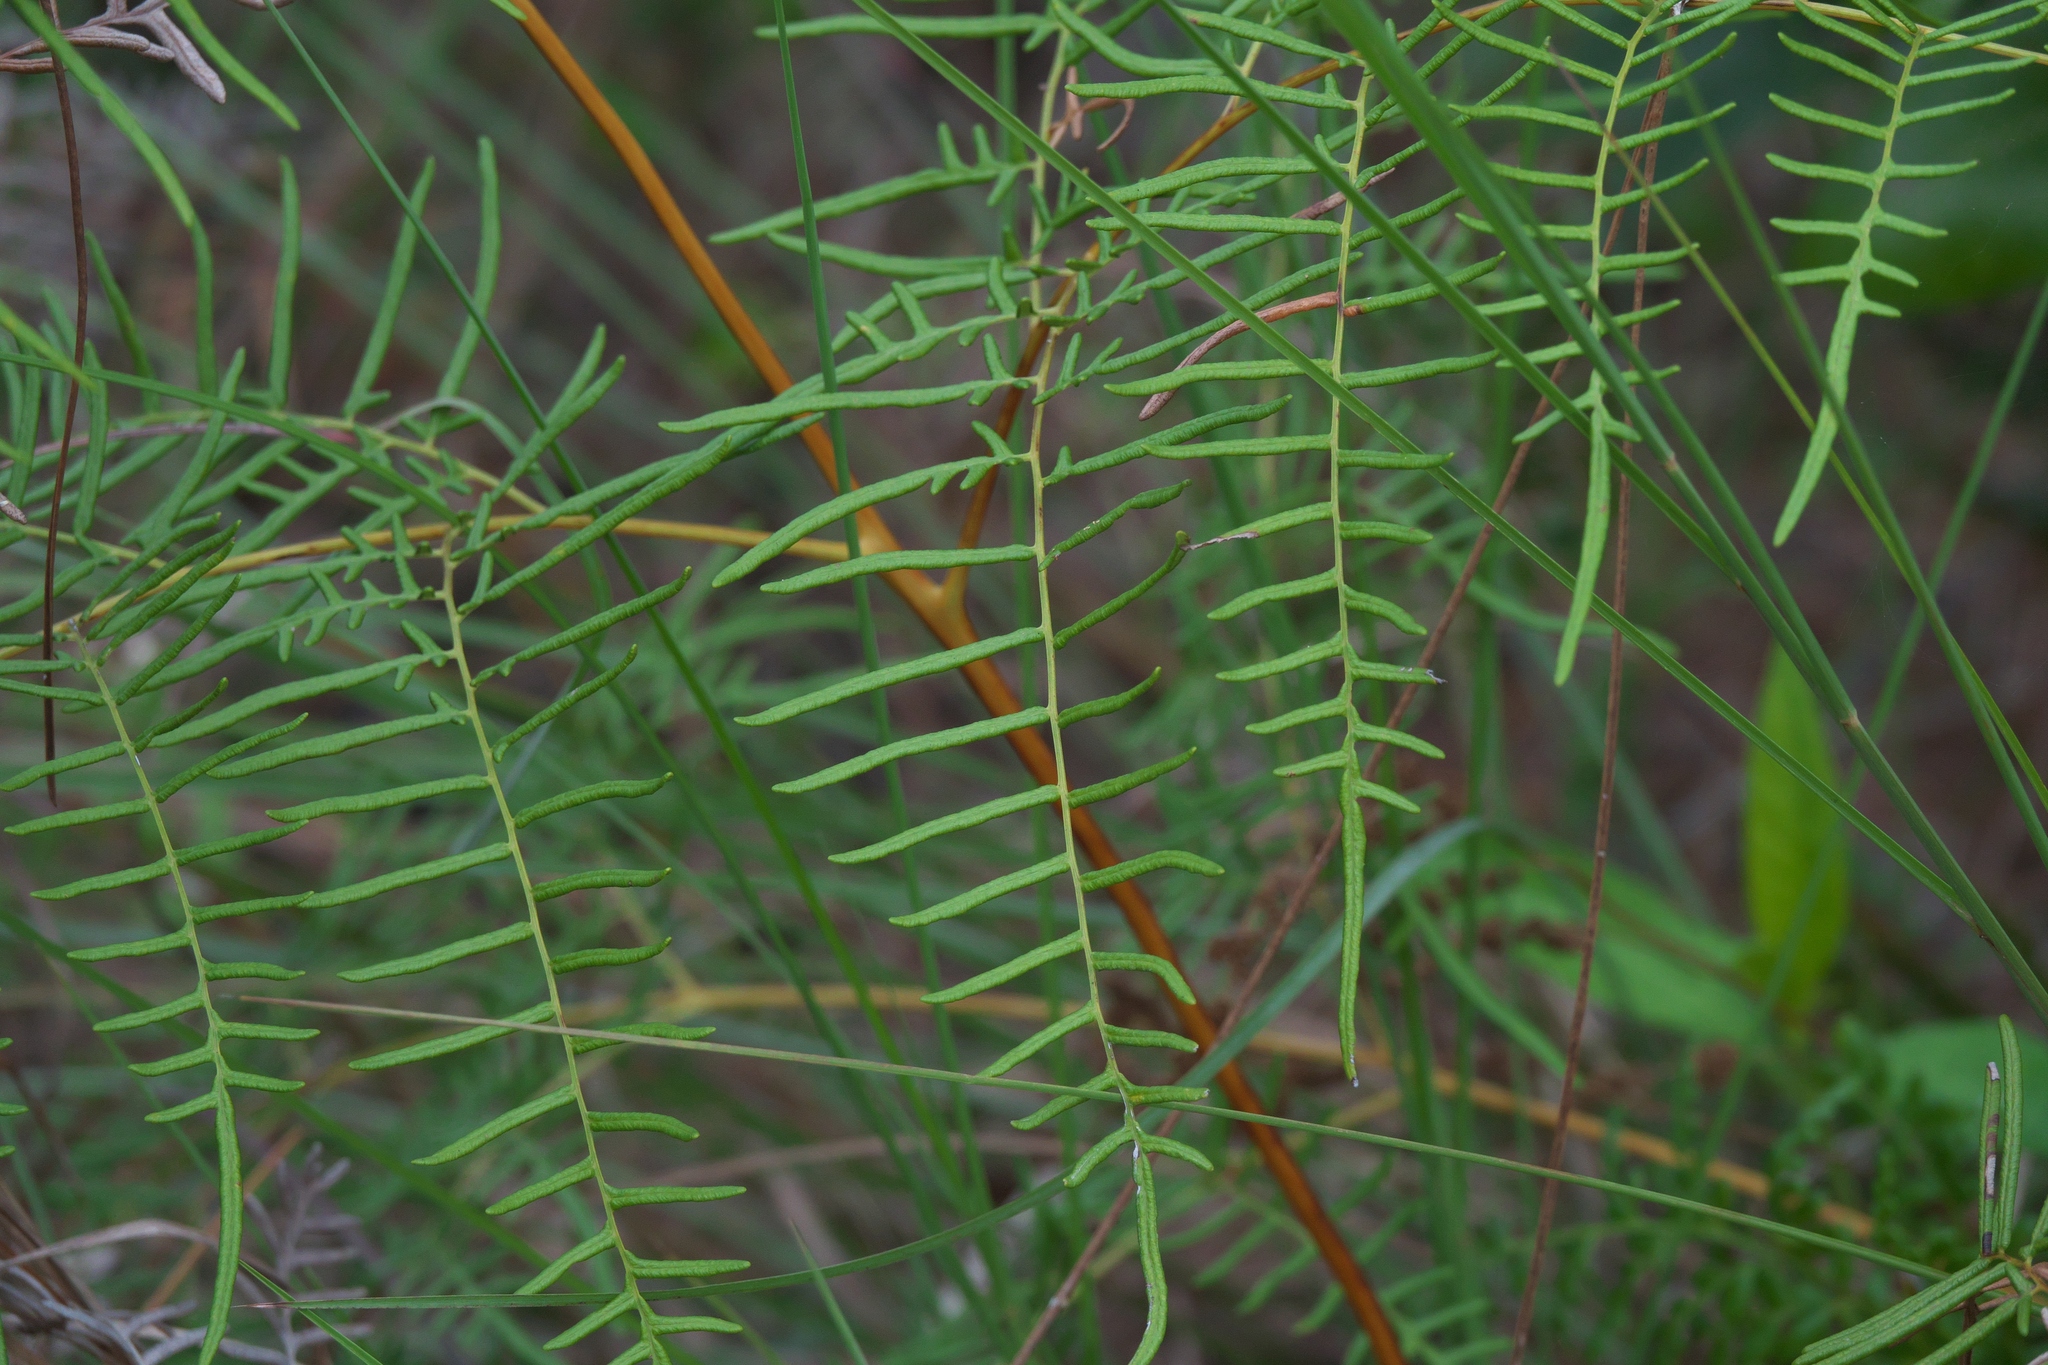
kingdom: Plantae
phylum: Tracheophyta
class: Polypodiopsida
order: Polypodiales
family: Dennstaedtiaceae
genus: Pteridium
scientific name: Pteridium caudatum
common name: Southern bracken fern
